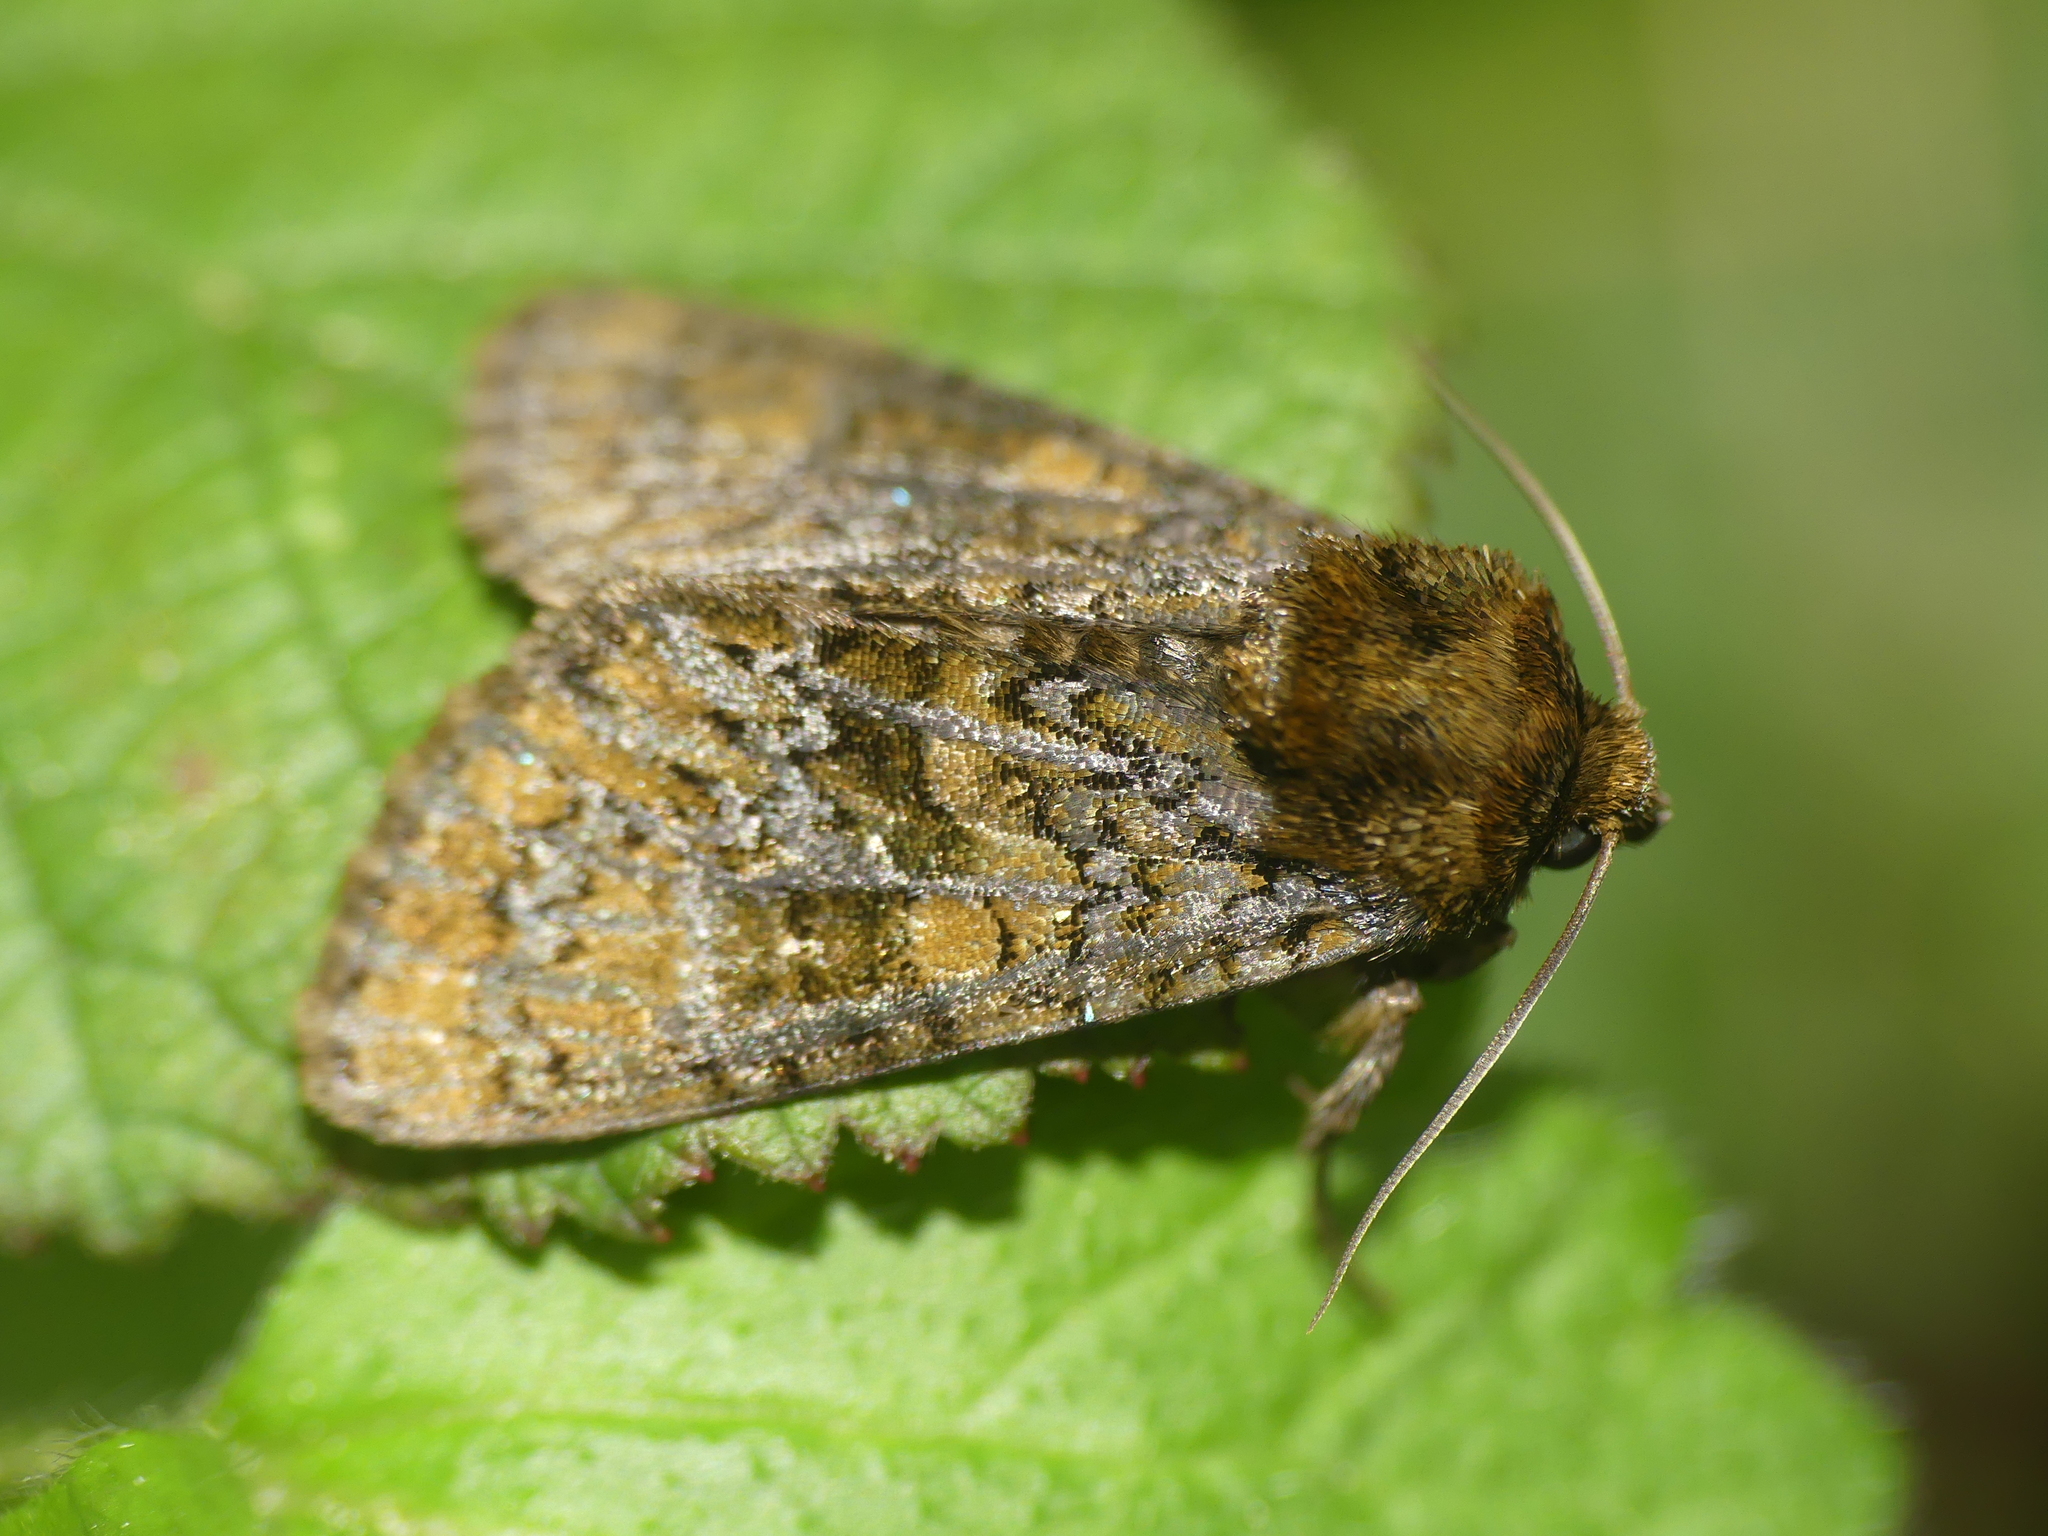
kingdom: Animalia
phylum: Arthropoda
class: Insecta
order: Lepidoptera
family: Noctuidae
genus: Craniophora
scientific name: Craniophora ligustri
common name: Coronet
